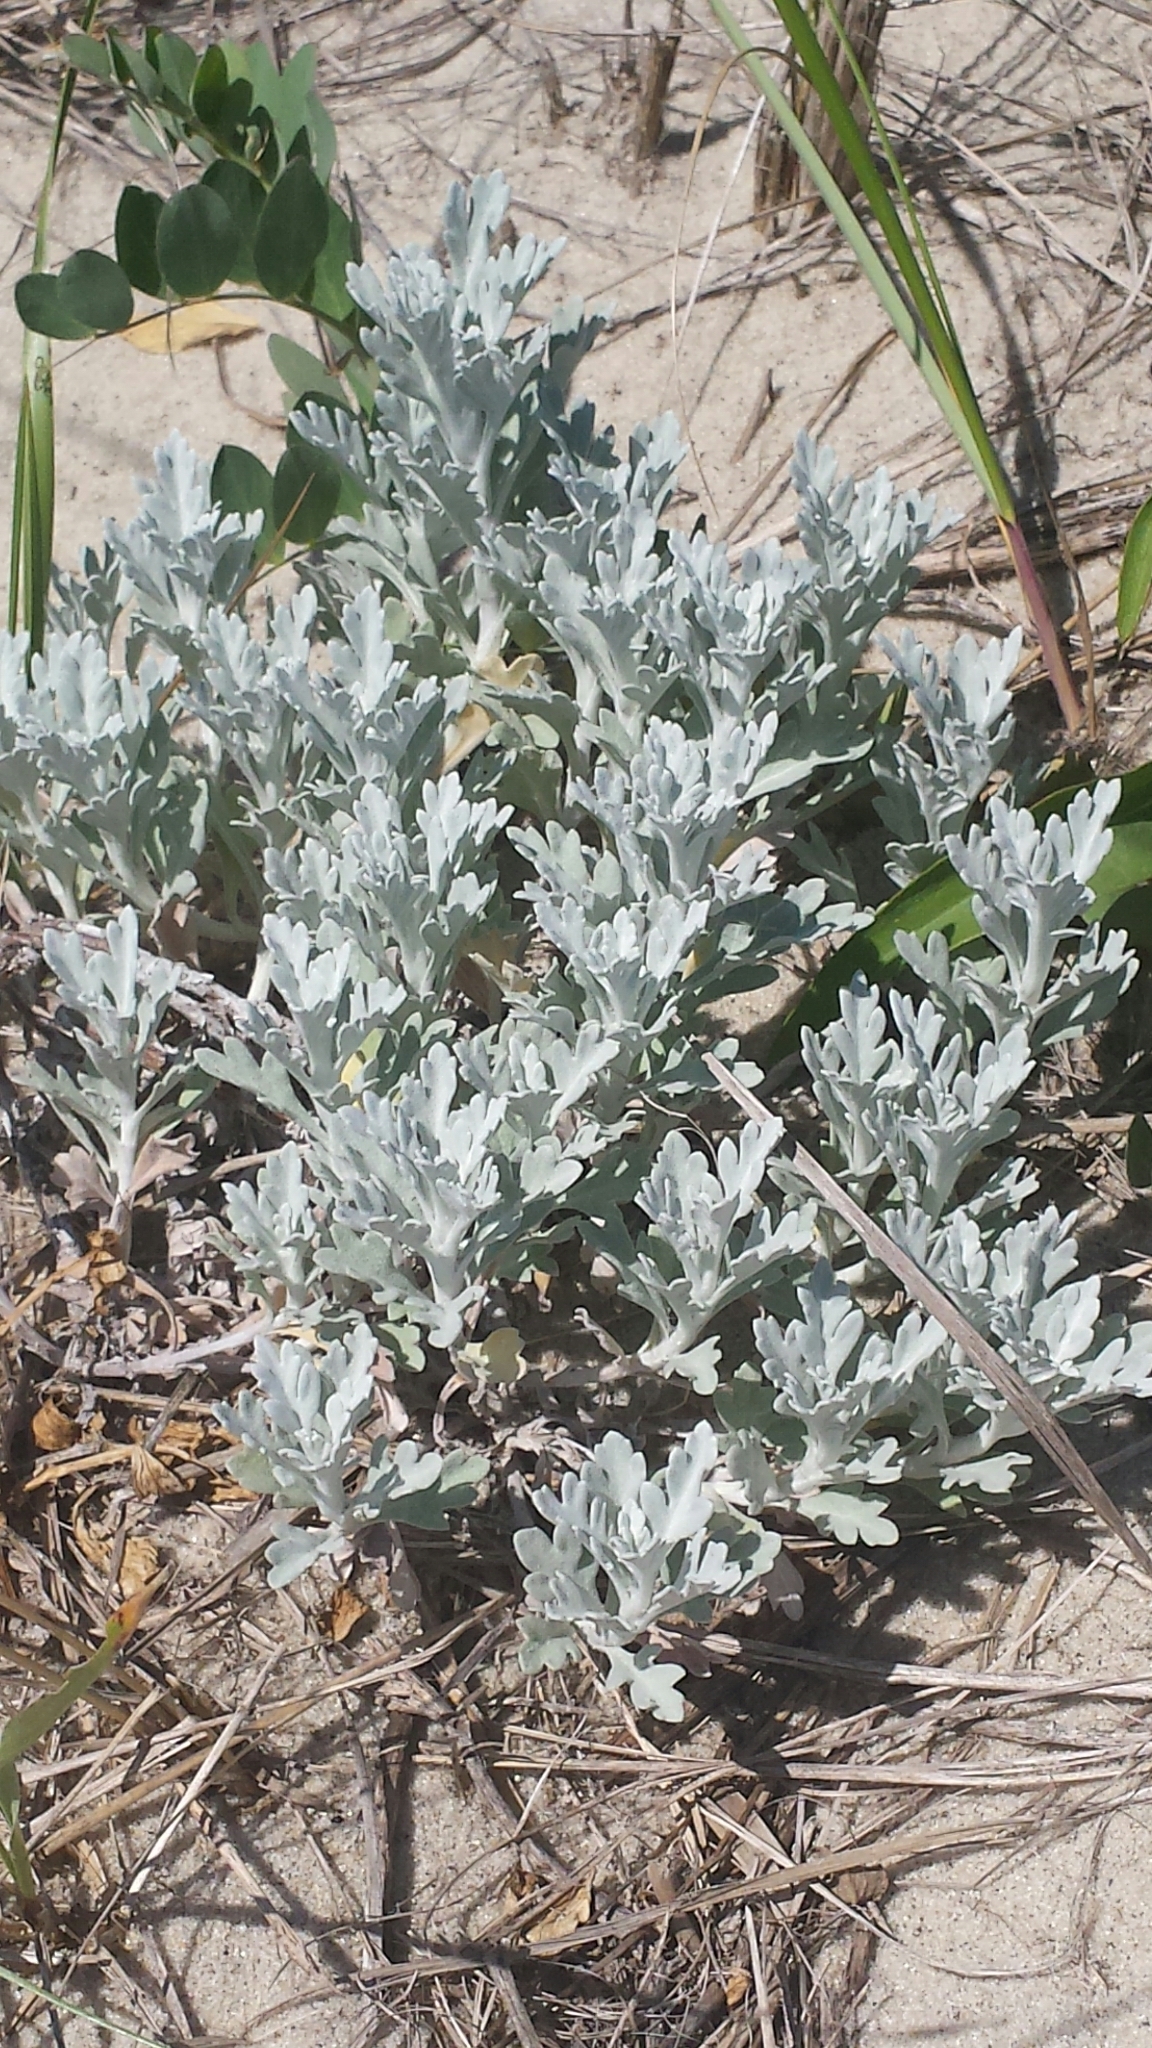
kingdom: Plantae
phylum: Tracheophyta
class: Magnoliopsida
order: Asterales
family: Asteraceae
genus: Artemisia
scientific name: Artemisia stelleriana
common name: Beach wormwood
